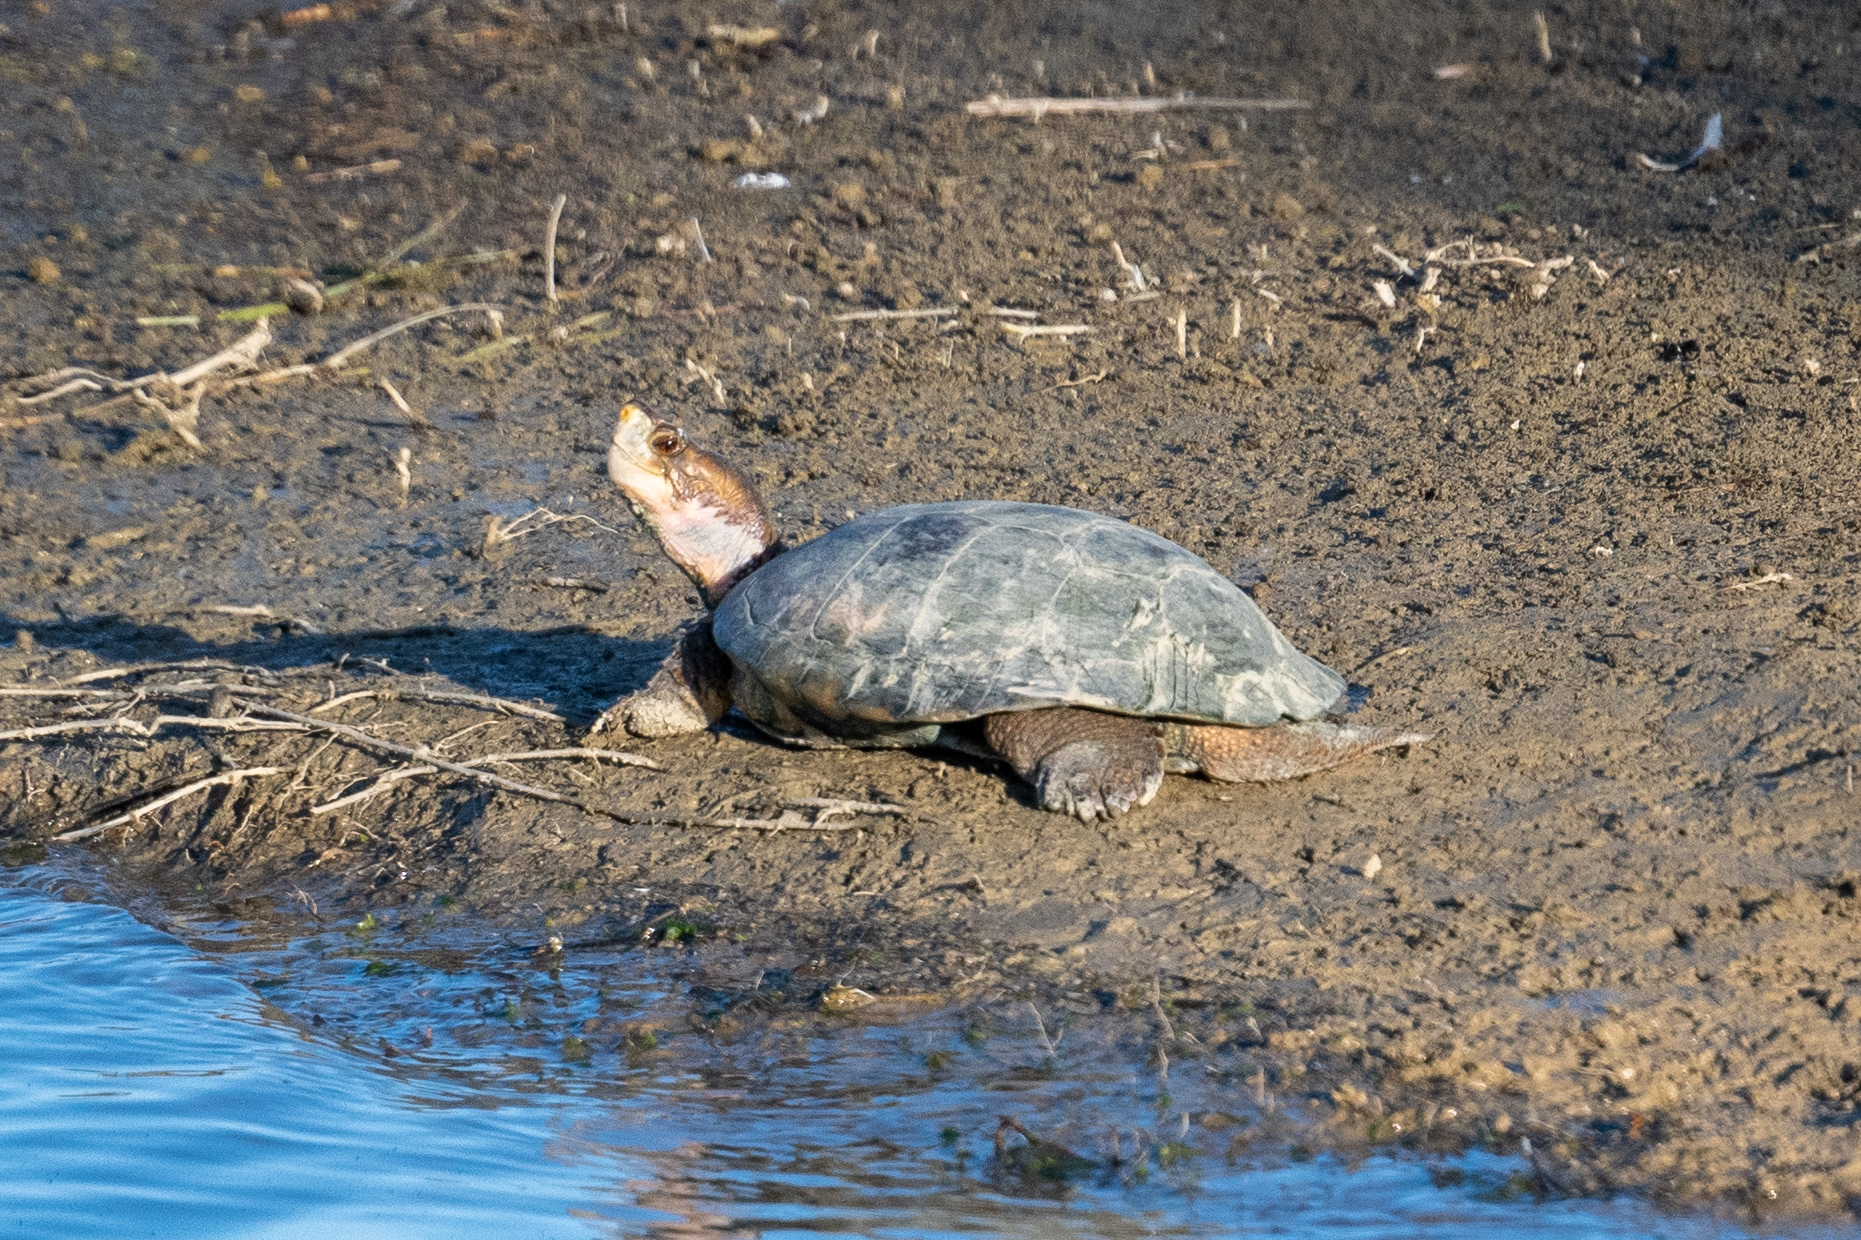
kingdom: Animalia
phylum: Chordata
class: Testudines
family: Emydidae
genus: Actinemys
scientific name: Actinemys marmorata
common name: Western pond turtle
